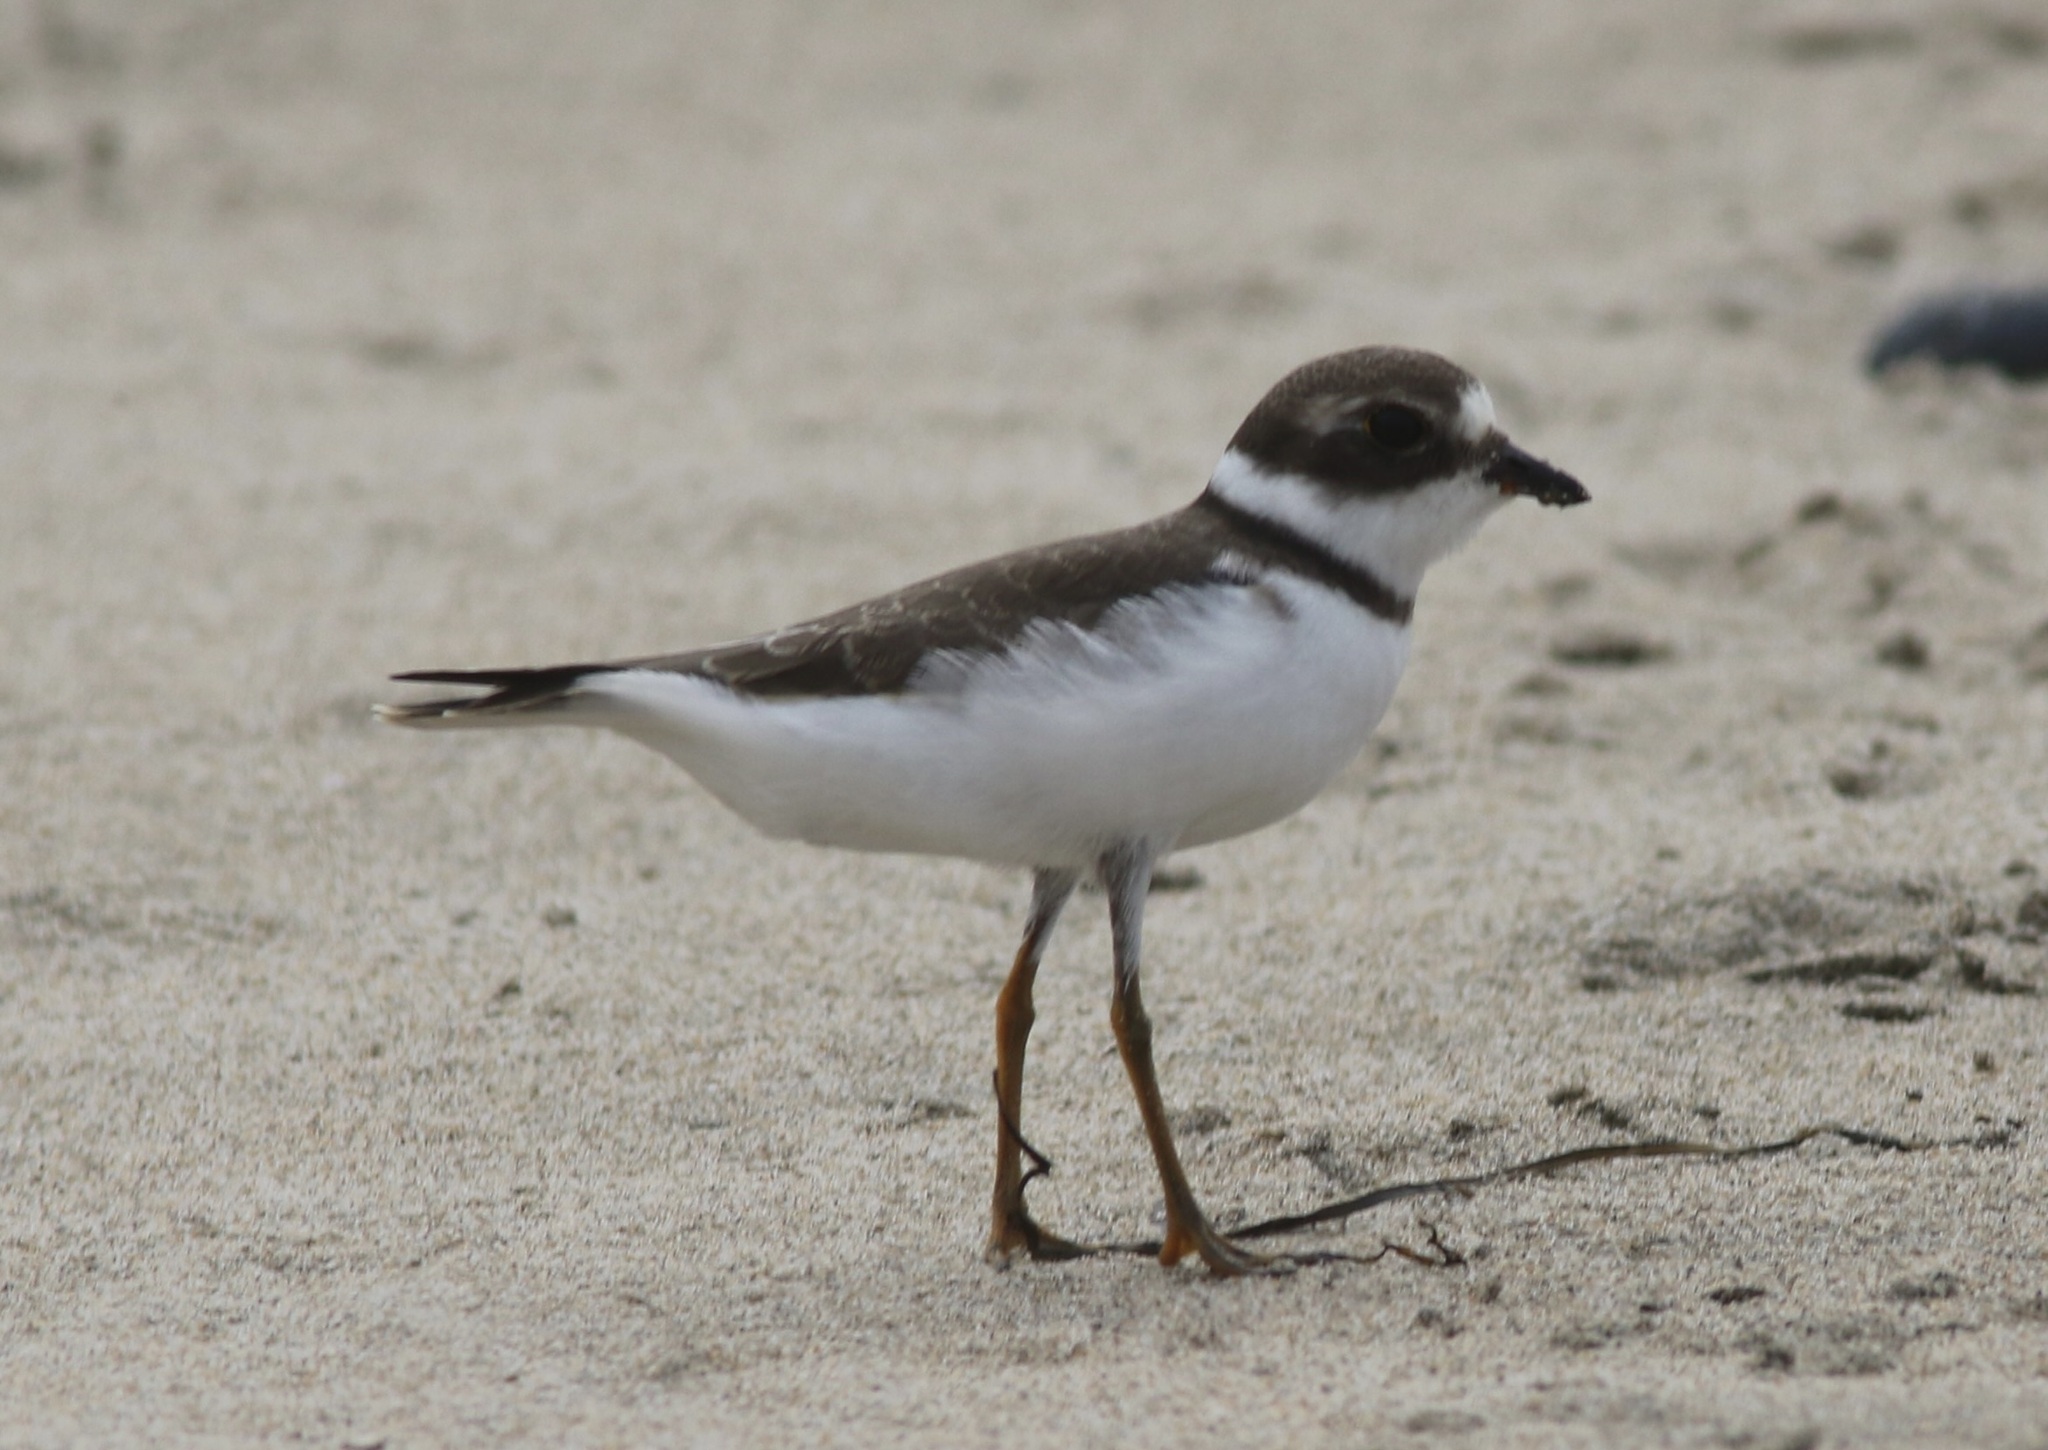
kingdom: Animalia
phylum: Chordata
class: Aves
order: Charadriiformes
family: Charadriidae
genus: Charadrius
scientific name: Charadrius semipalmatus
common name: Semipalmated plover
